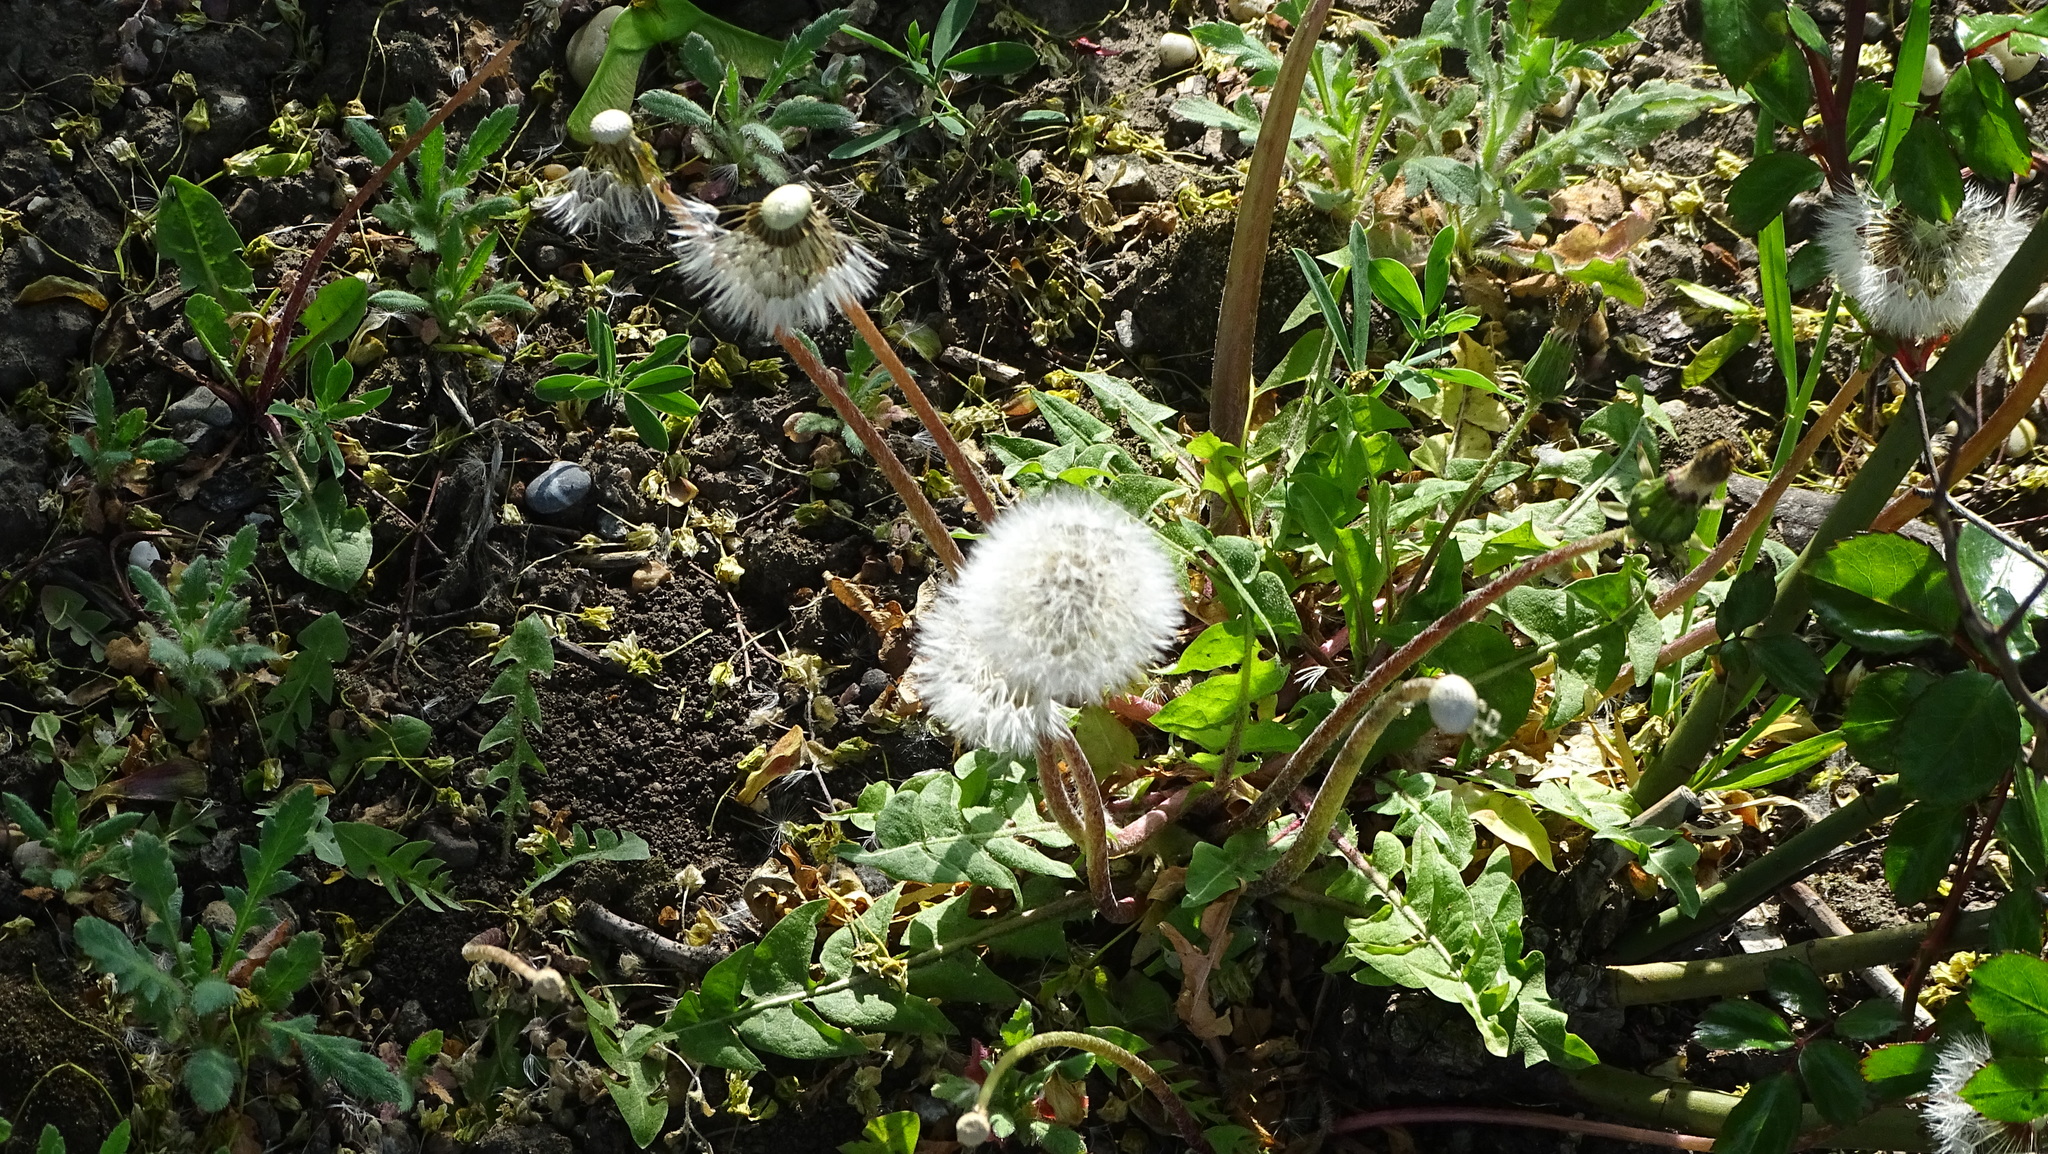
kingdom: Plantae
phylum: Tracheophyta
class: Magnoliopsida
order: Asterales
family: Asteraceae
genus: Taraxacum
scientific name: Taraxacum officinale
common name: Common dandelion
